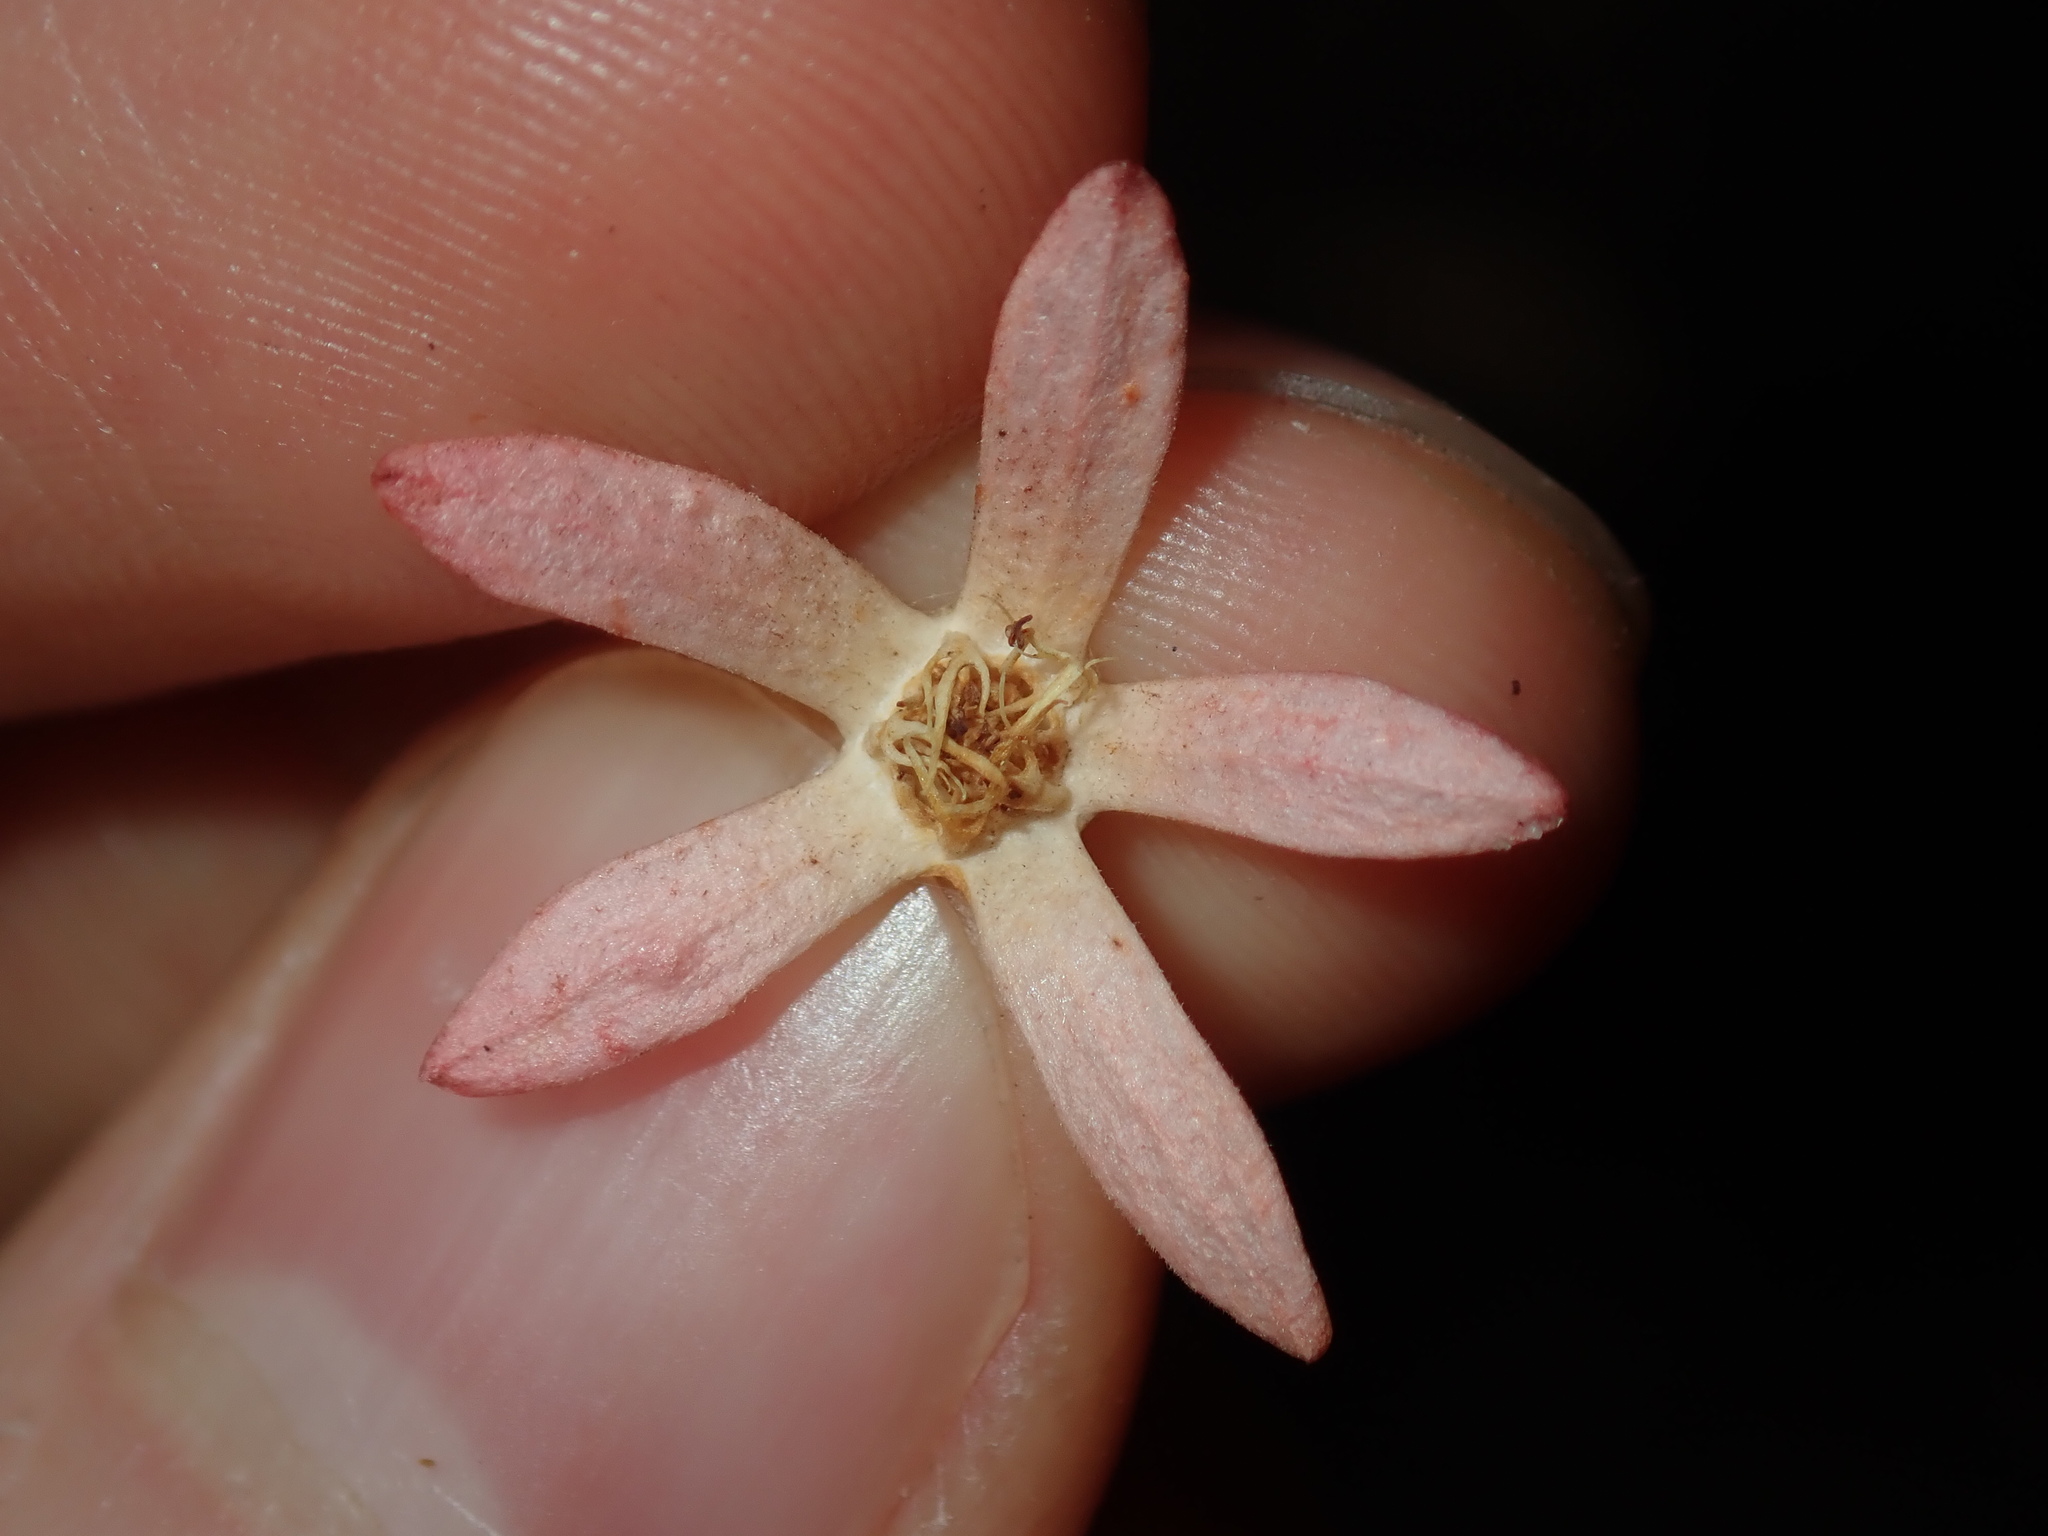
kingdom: Plantae
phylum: Tracheophyta
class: Magnoliopsida
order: Oxalidales
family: Cunoniaceae
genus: Ceratopetalum
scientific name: Ceratopetalum gummiferum
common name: Christmasbush
